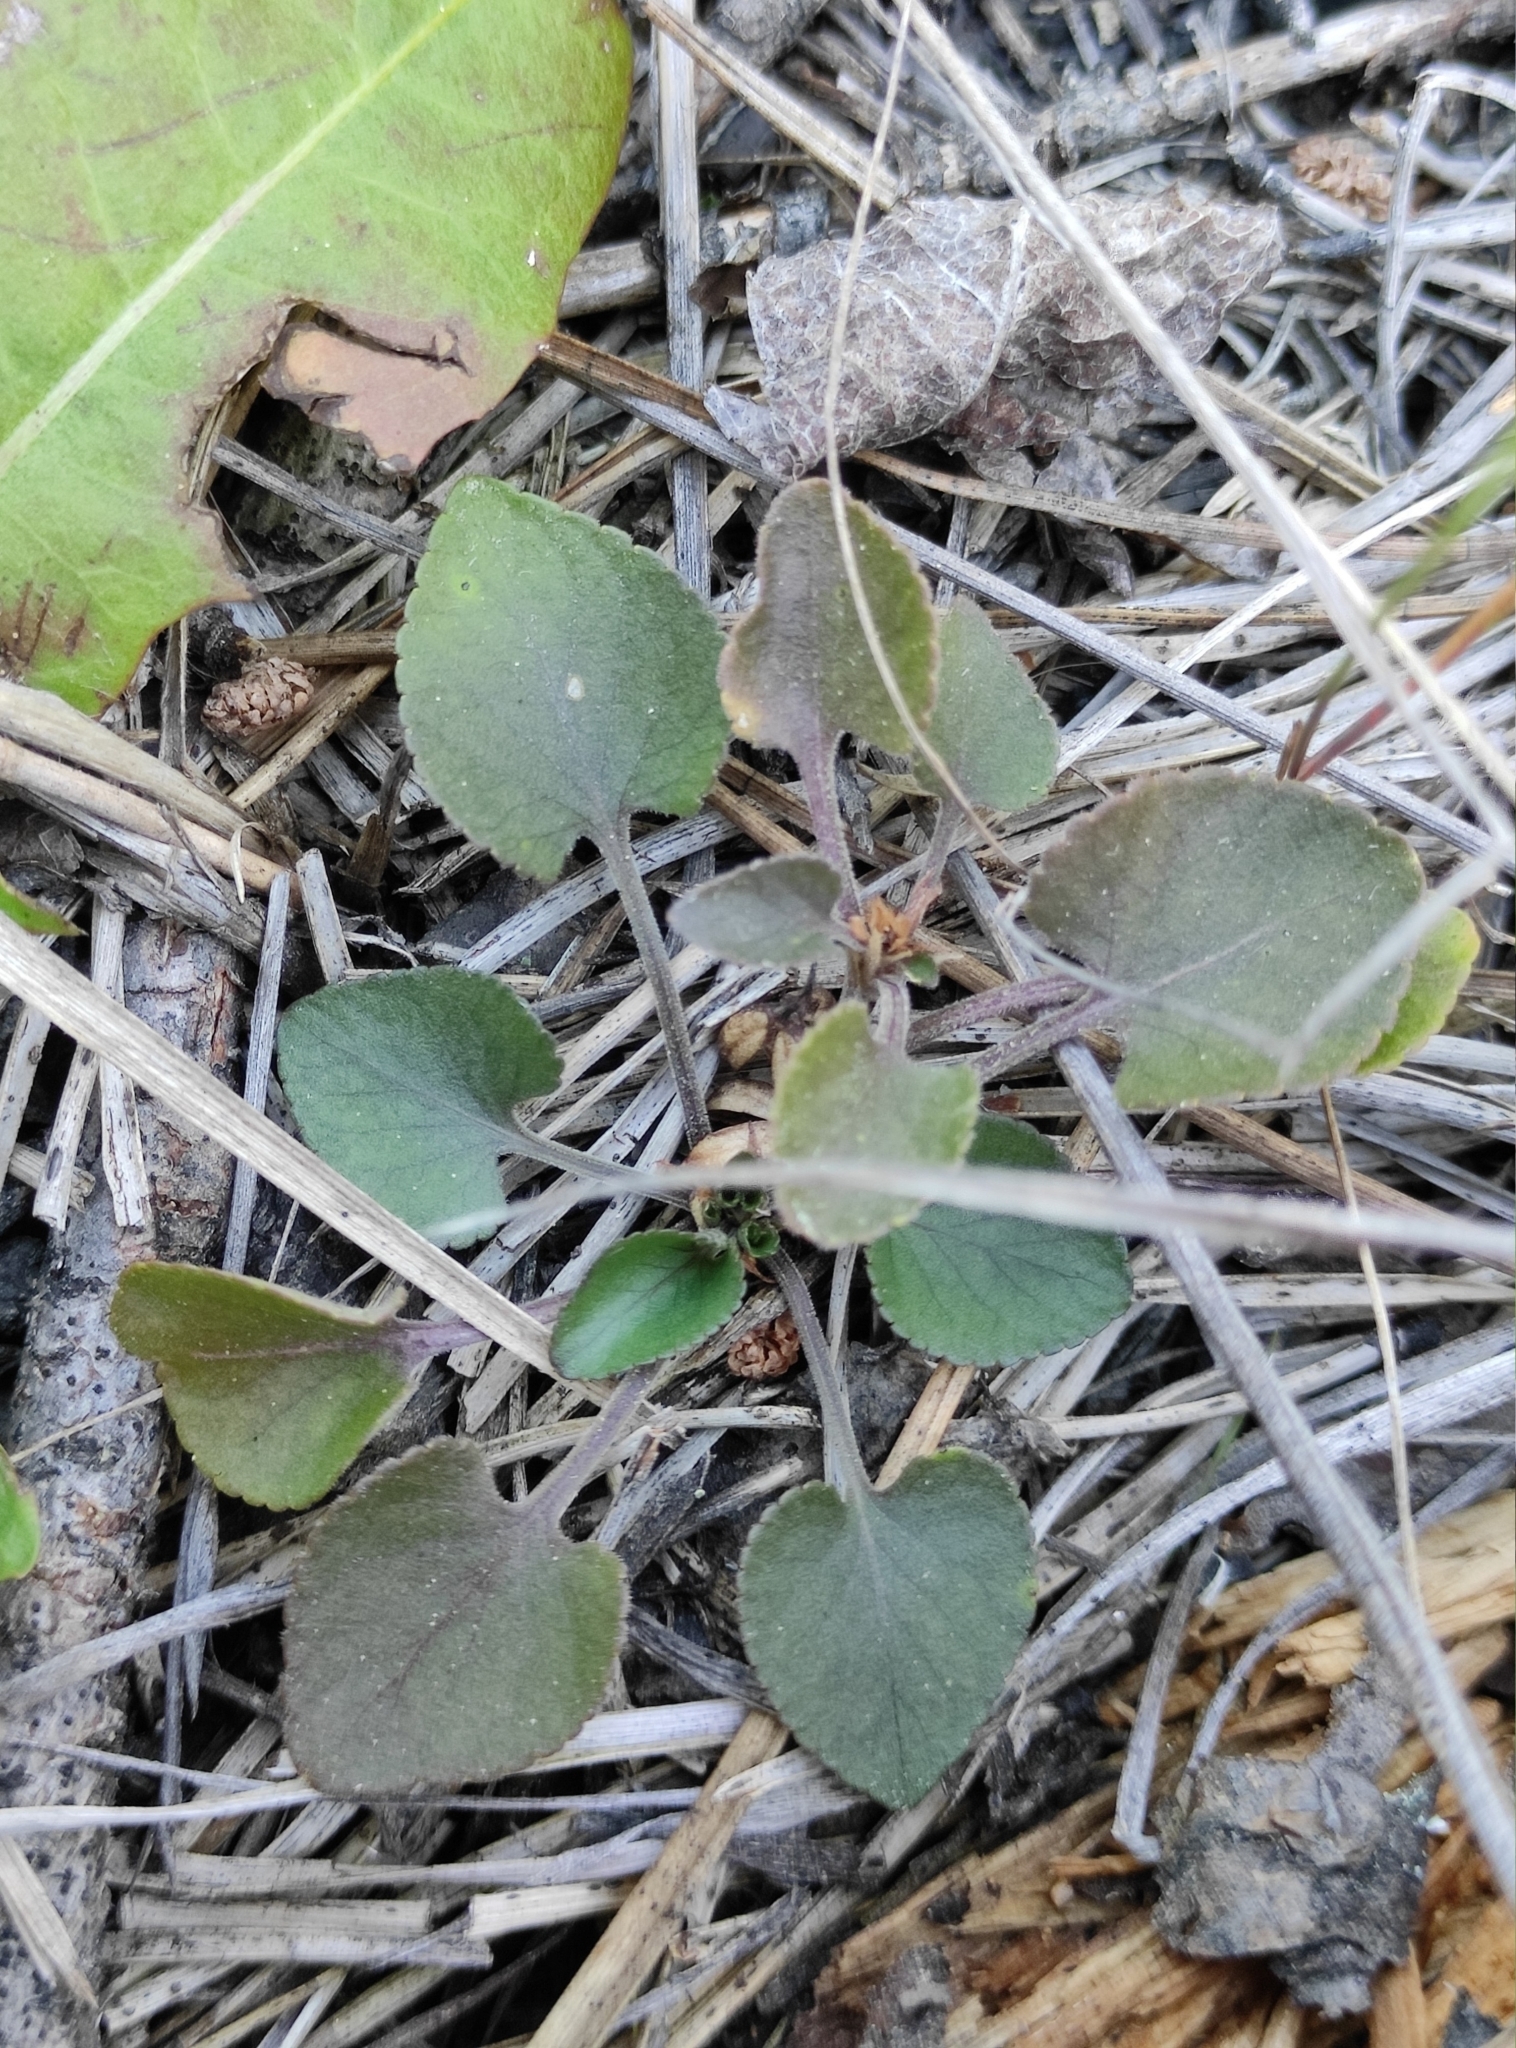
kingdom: Plantae
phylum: Tracheophyta
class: Magnoliopsida
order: Malpighiales
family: Violaceae
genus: Viola
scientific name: Viola rupestris
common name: Teesdale violet
